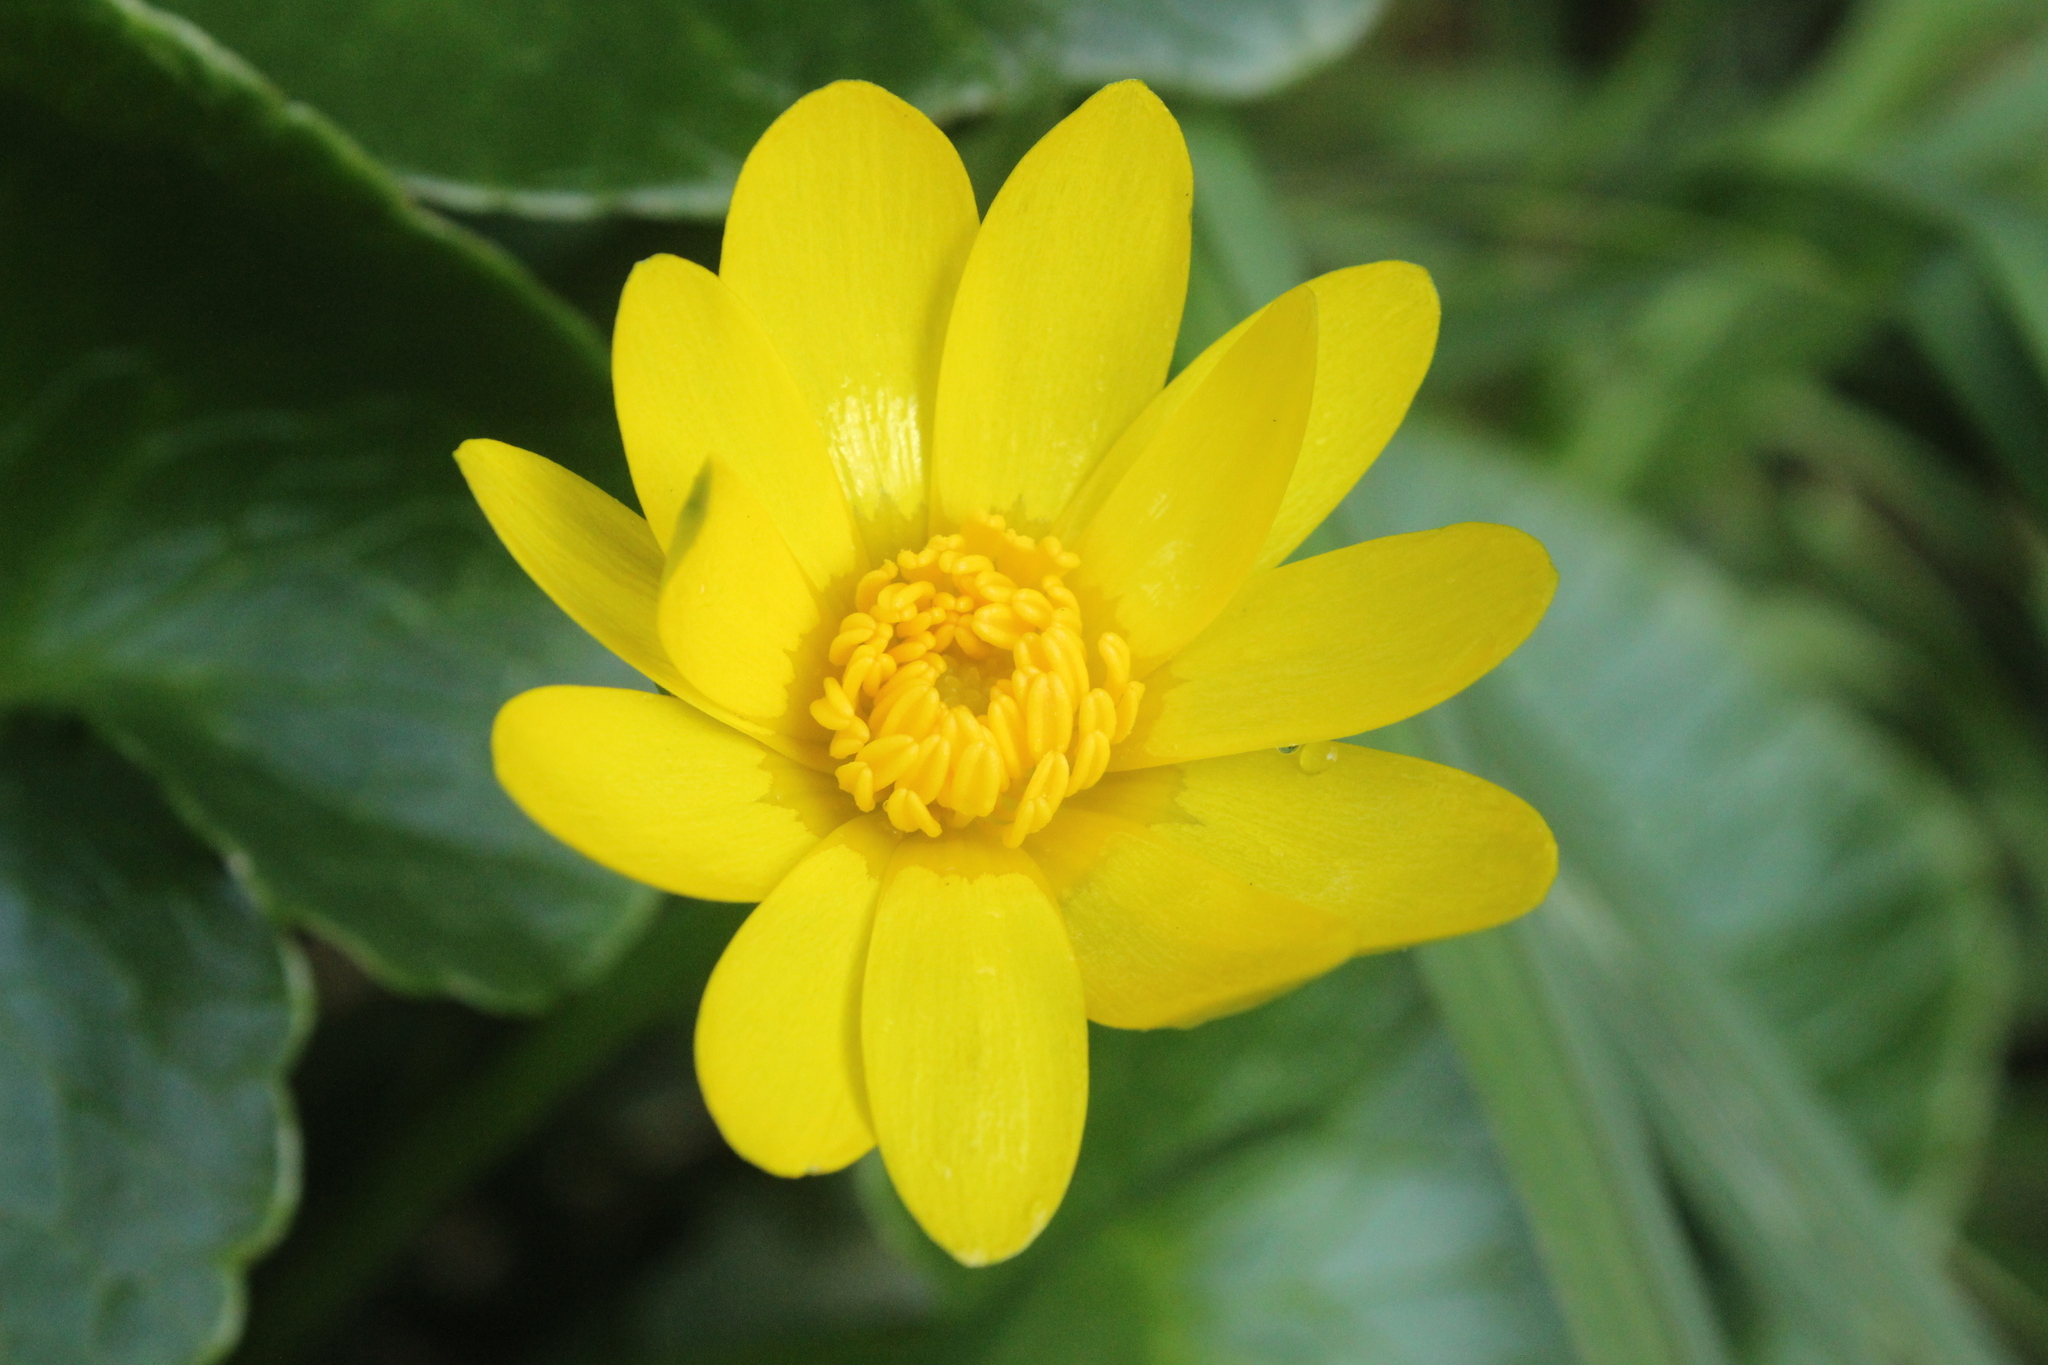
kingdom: Plantae
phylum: Tracheophyta
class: Magnoliopsida
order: Ranunculales
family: Ranunculaceae
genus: Ficaria
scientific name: Ficaria verna
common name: Lesser celandine
